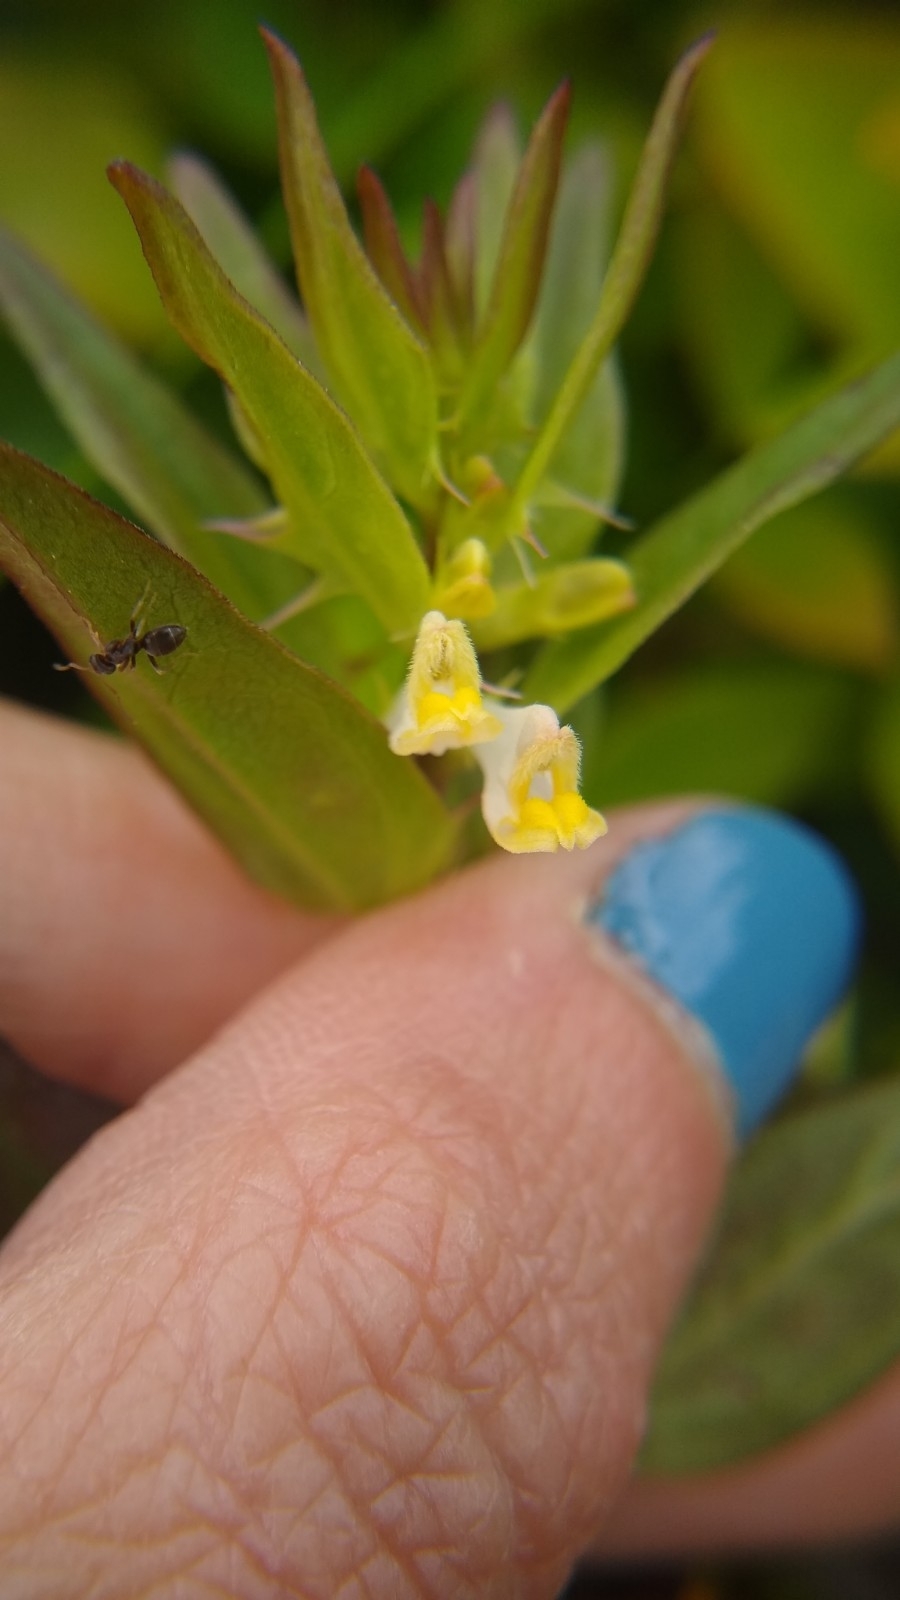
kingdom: Plantae
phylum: Tracheophyta
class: Magnoliopsida
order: Lamiales
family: Orobanchaceae
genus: Melampyrum
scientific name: Melampyrum lineare
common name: American cow-wheat
